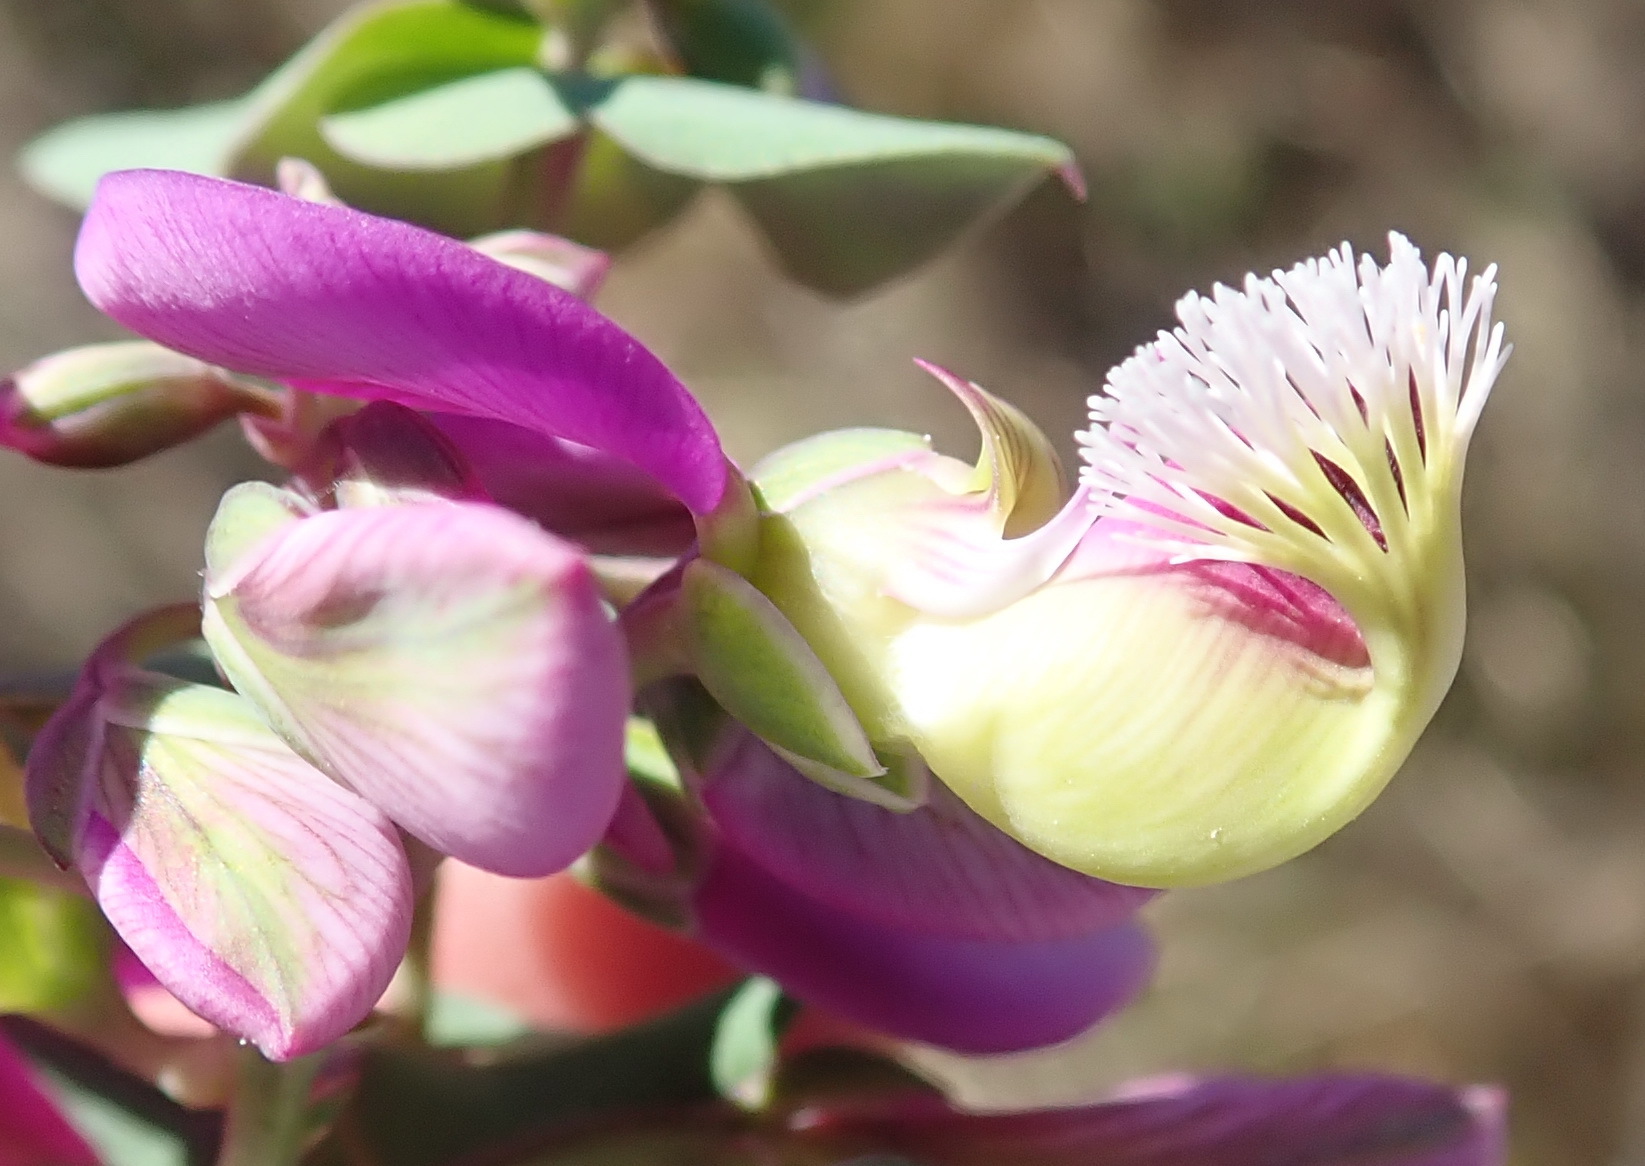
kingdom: Plantae
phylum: Tracheophyta
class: Magnoliopsida
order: Fabales
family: Polygalaceae
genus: Polygala
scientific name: Polygala fruticosa
